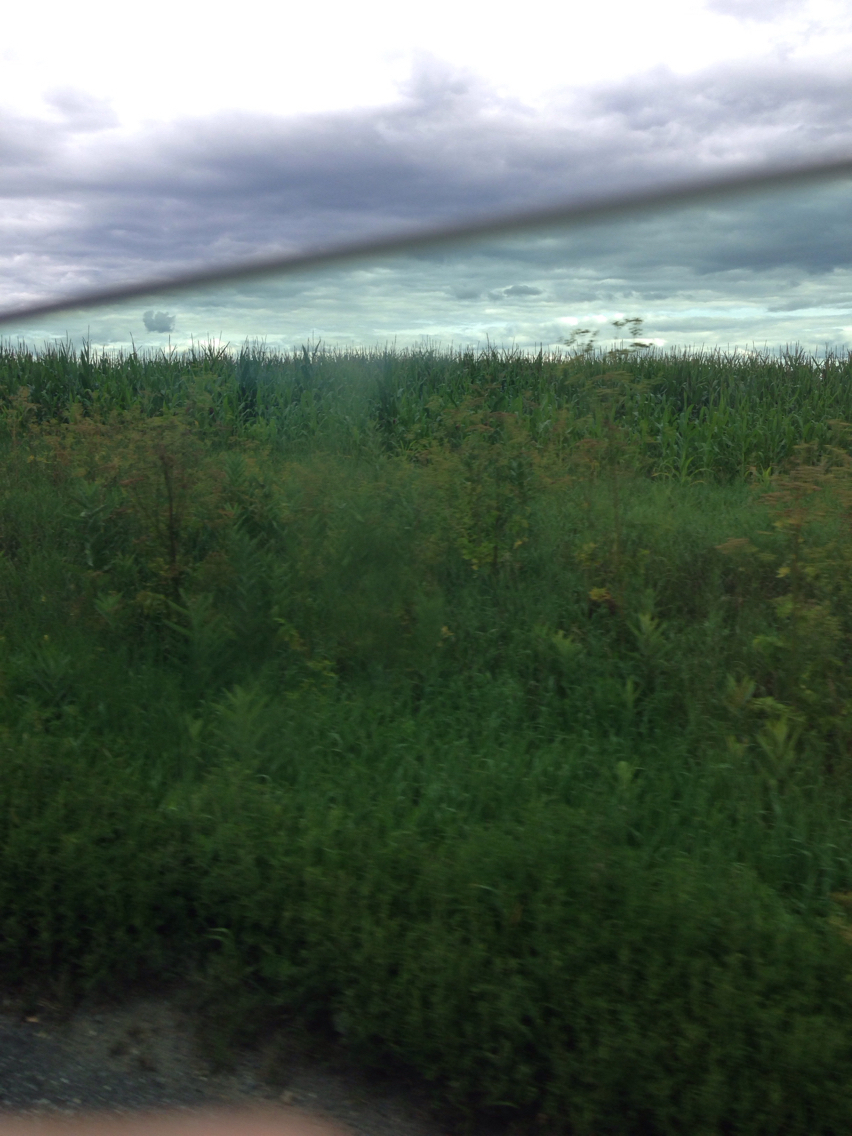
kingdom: Plantae
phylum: Tracheophyta
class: Magnoliopsida
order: Apiales
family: Apiaceae
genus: Pastinaca
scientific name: Pastinaca sativa
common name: Wild parsnip
